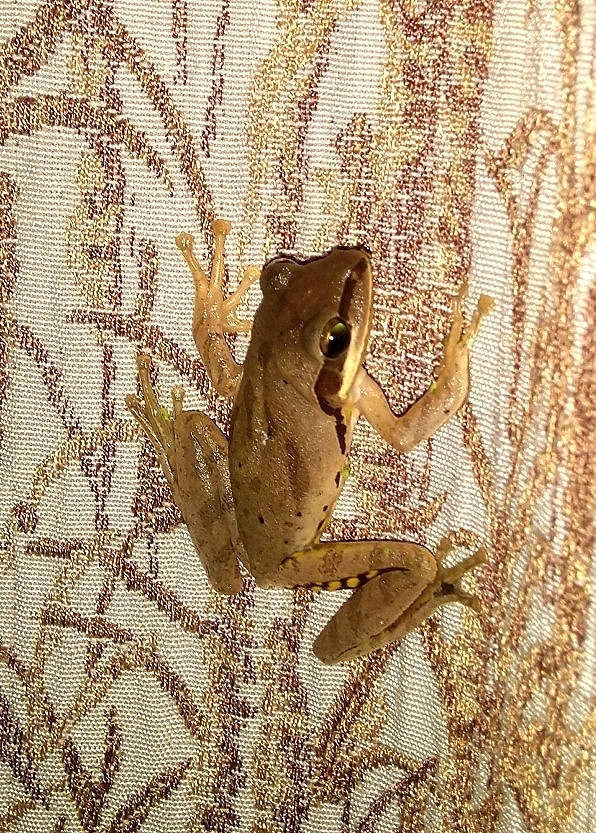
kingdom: Animalia
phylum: Chordata
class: Amphibia
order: Anura
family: Rhacophoridae
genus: Polypedates
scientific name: Polypedates maculatus
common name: Himalayan tree frog
